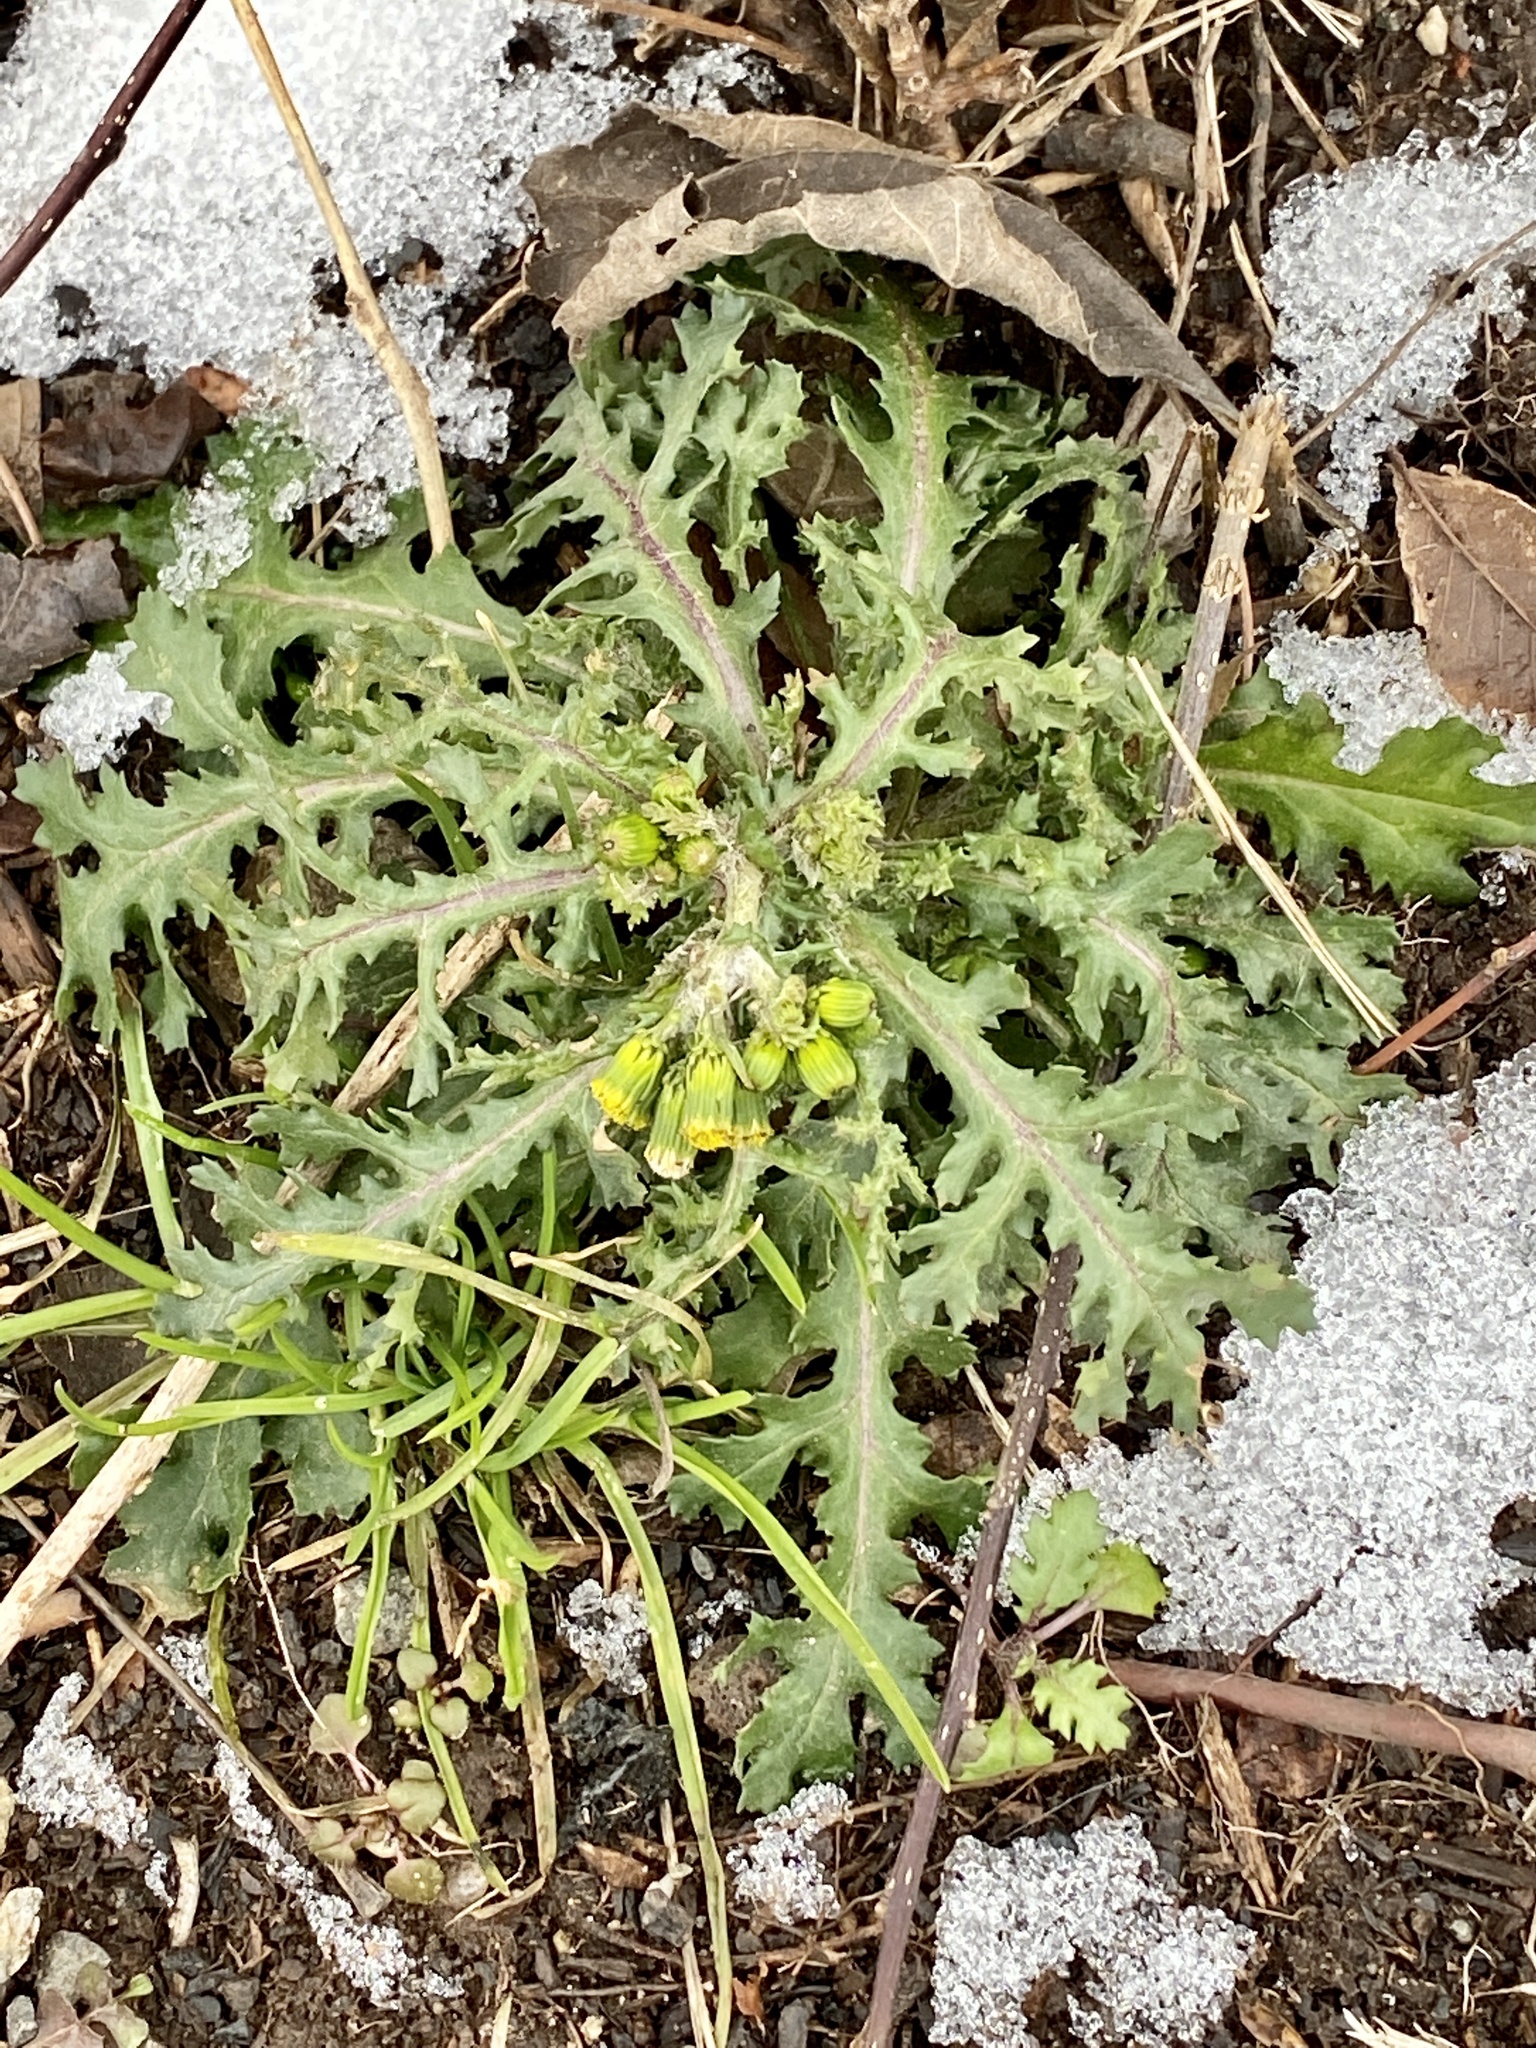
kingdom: Plantae
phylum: Tracheophyta
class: Magnoliopsida
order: Asterales
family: Asteraceae
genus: Senecio
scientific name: Senecio vulgaris
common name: Old-man-in-the-spring
